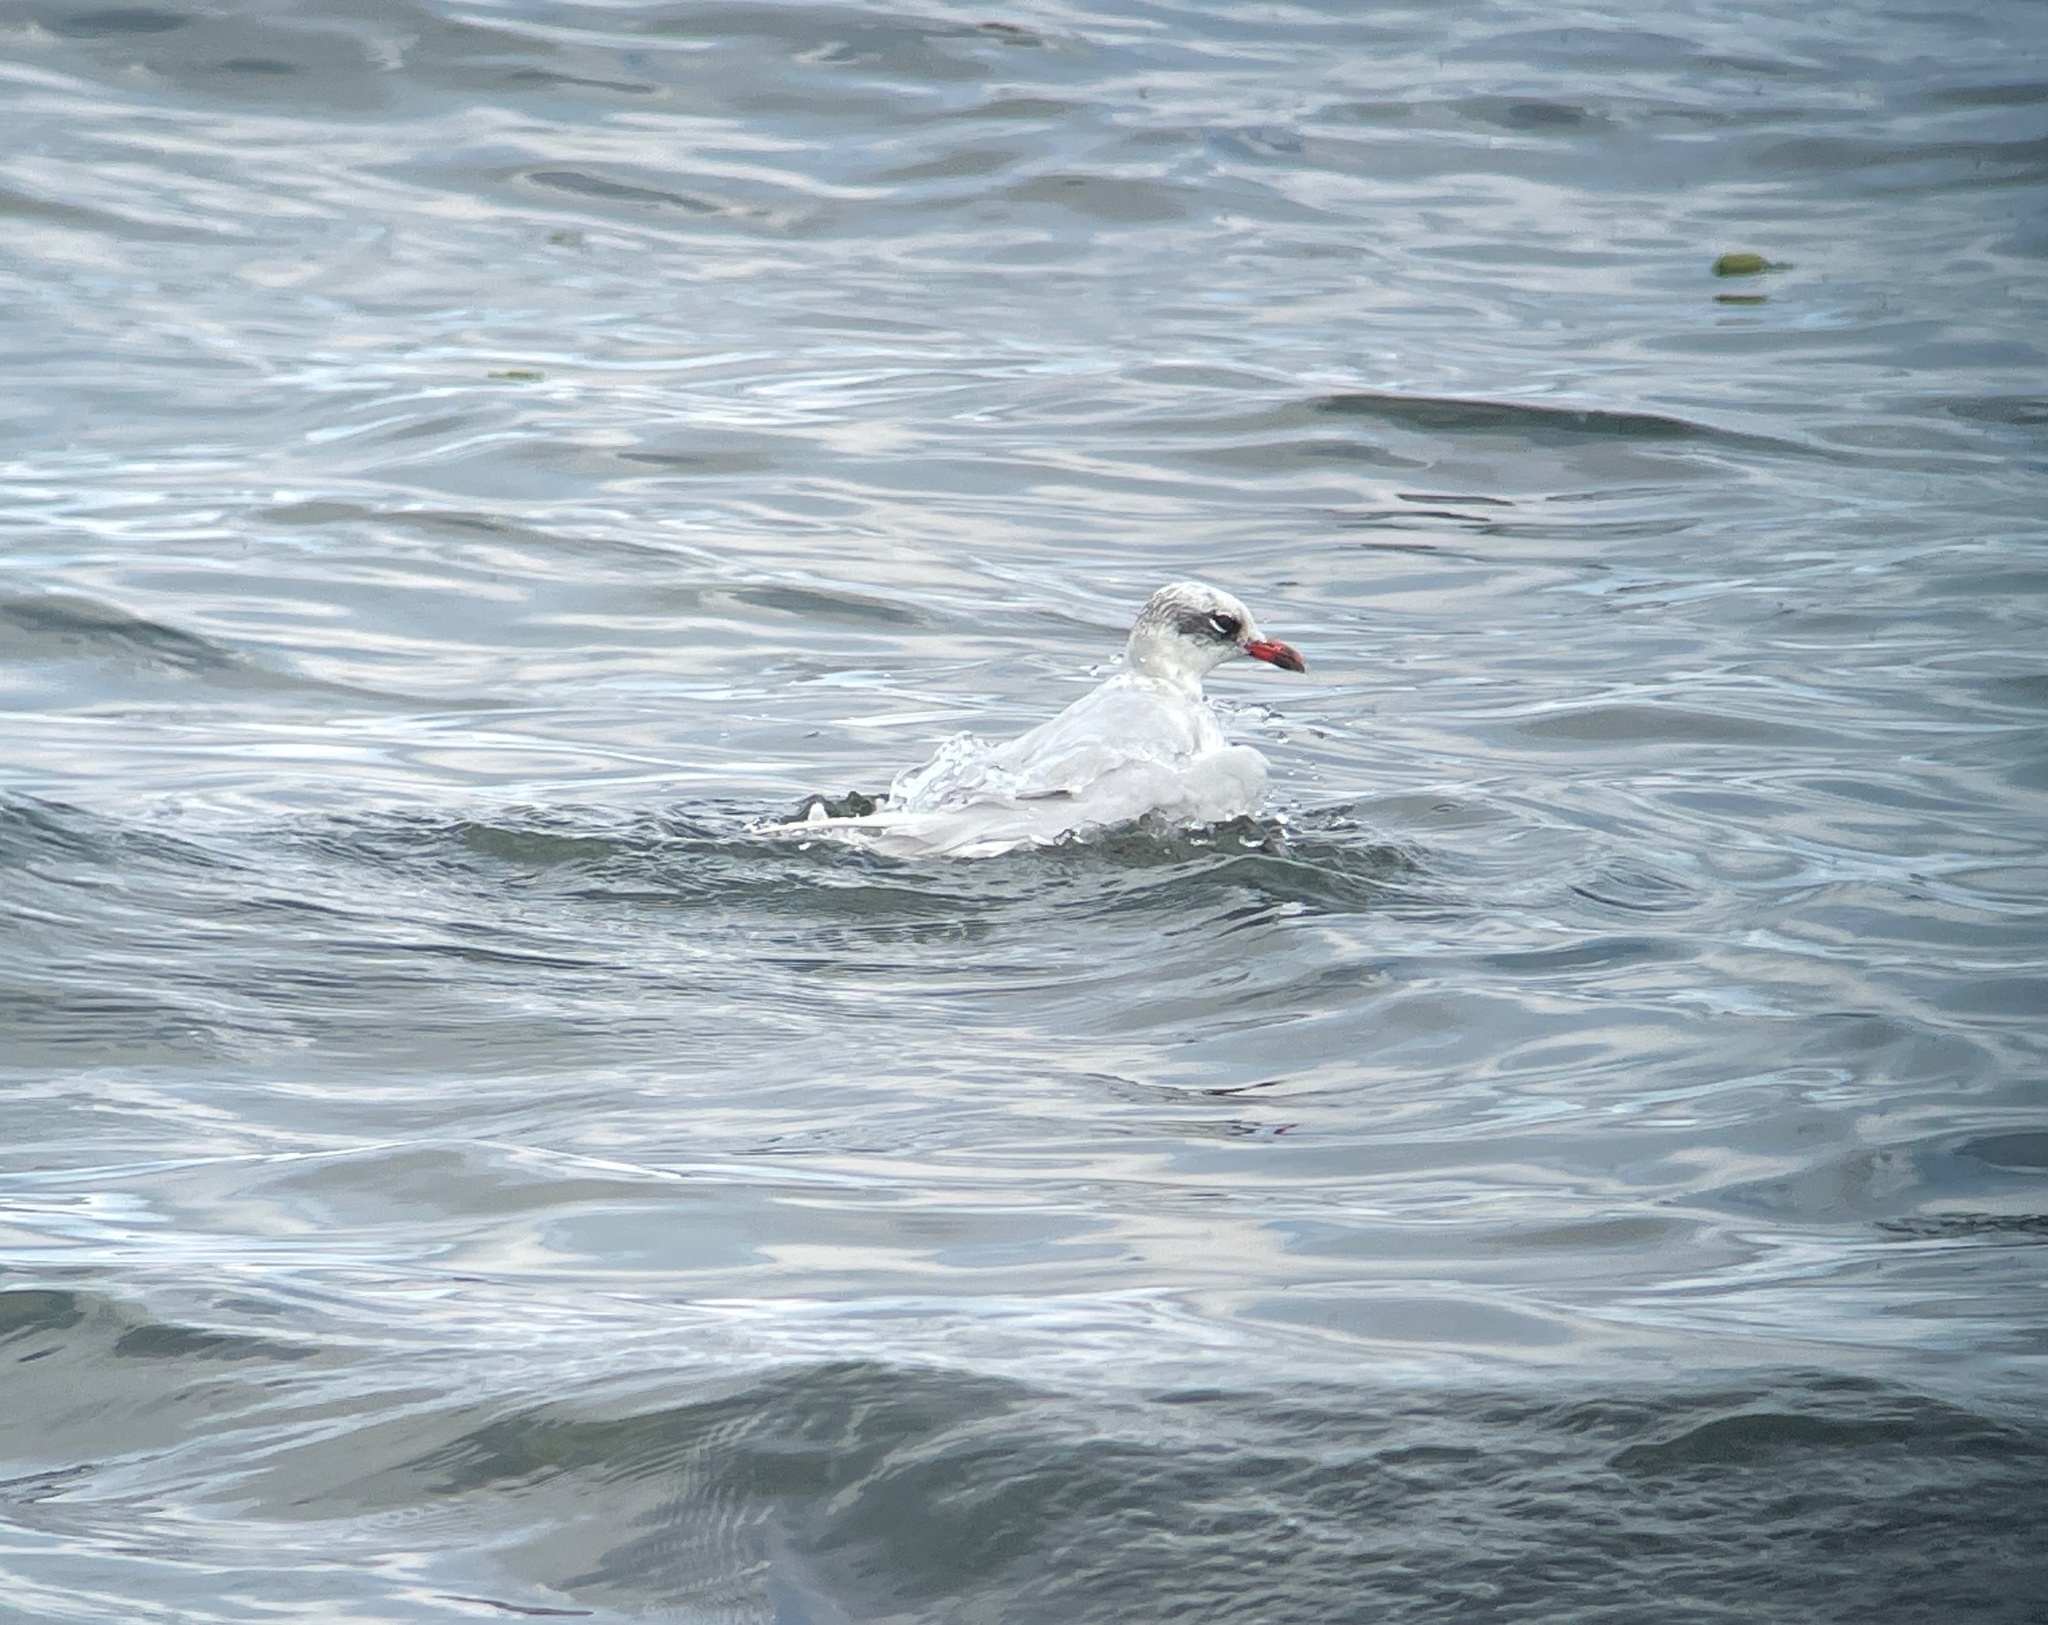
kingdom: Animalia
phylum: Chordata
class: Aves
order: Charadriiformes
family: Laridae
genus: Ichthyaetus
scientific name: Ichthyaetus melanocephalus
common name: Mediterranean gull
